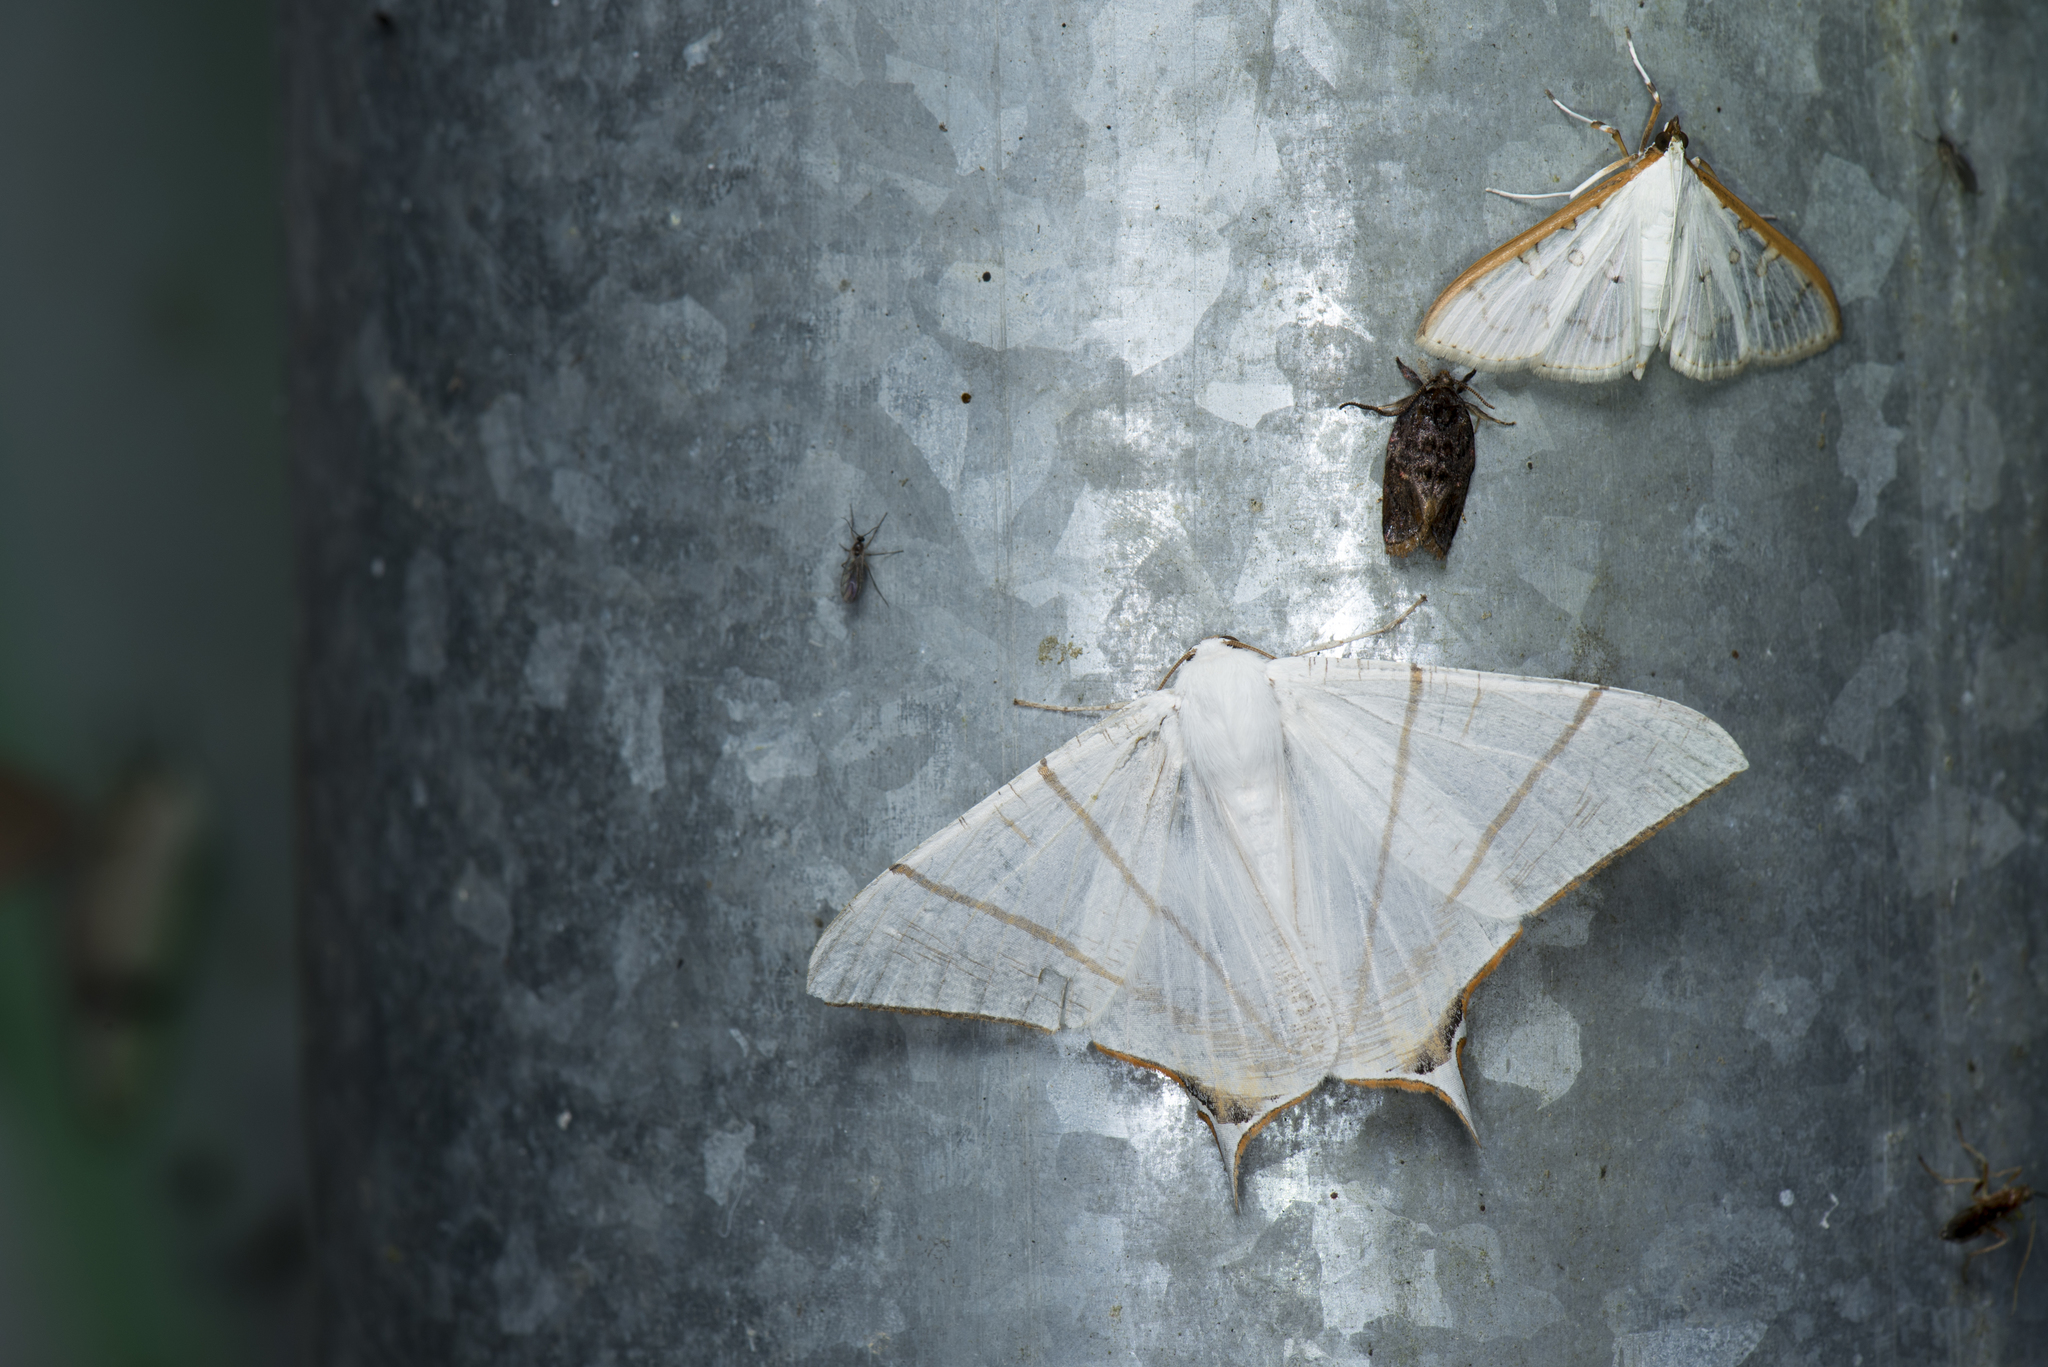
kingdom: Animalia
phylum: Arthropoda
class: Insecta
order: Lepidoptera
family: Geometridae
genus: Ourapteryx
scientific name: Ourapteryx clara
